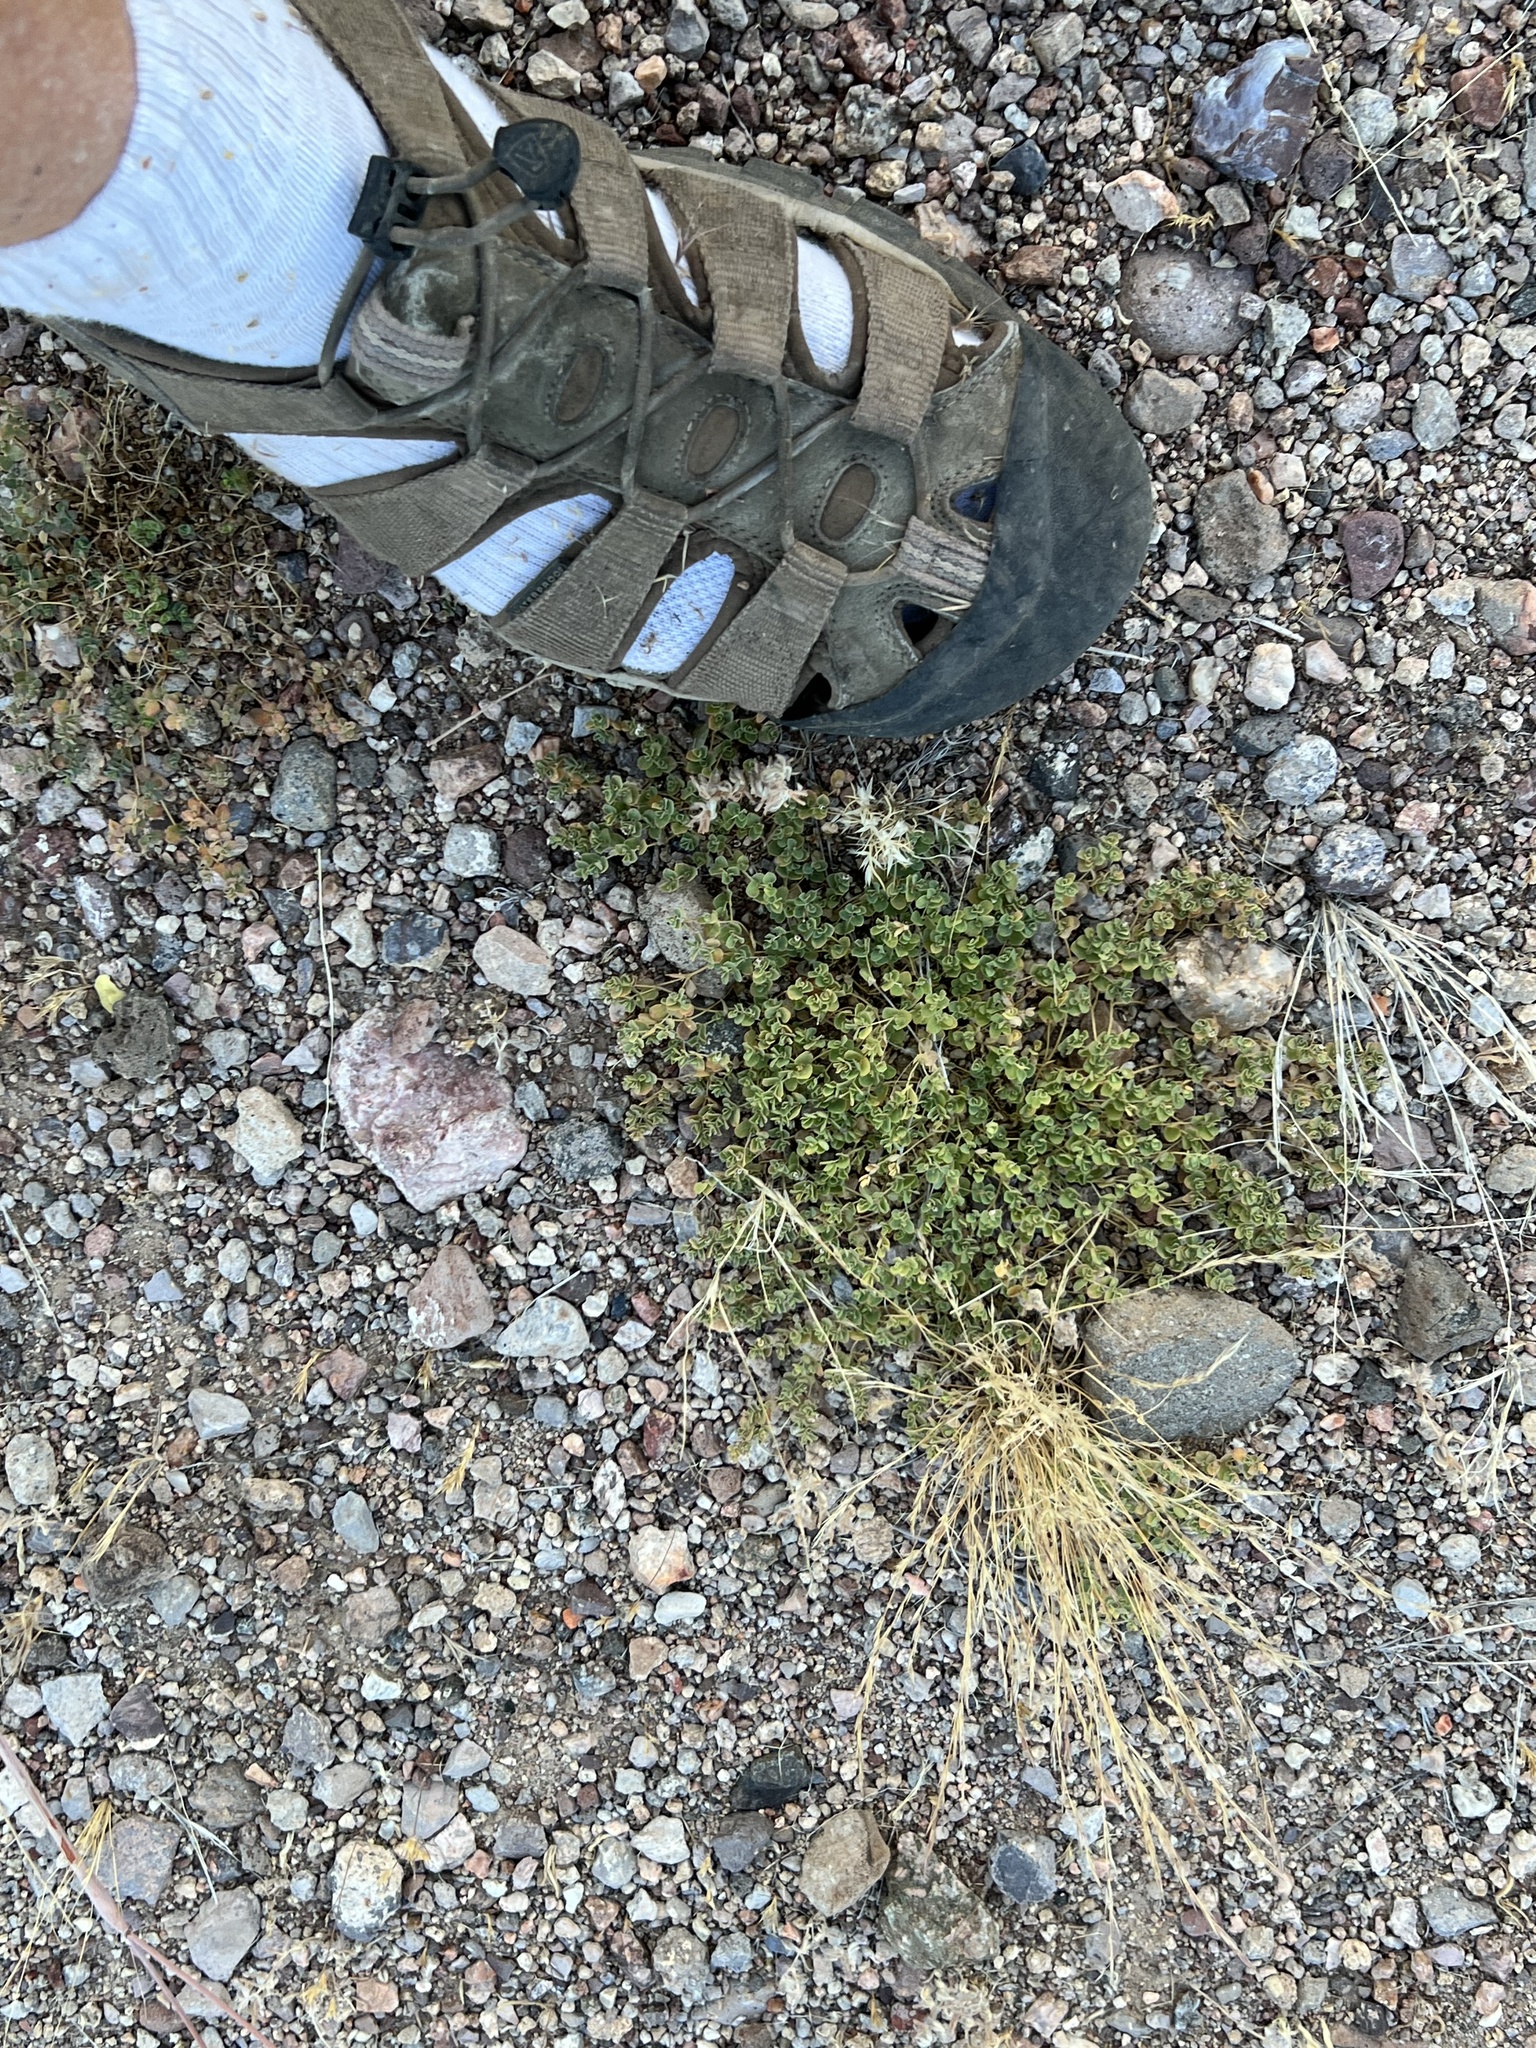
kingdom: Plantae
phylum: Tracheophyta
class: Magnoliopsida
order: Malpighiales
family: Euphorbiaceae
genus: Euphorbia
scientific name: Euphorbia albomarginata
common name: Whitemargin sandmat
